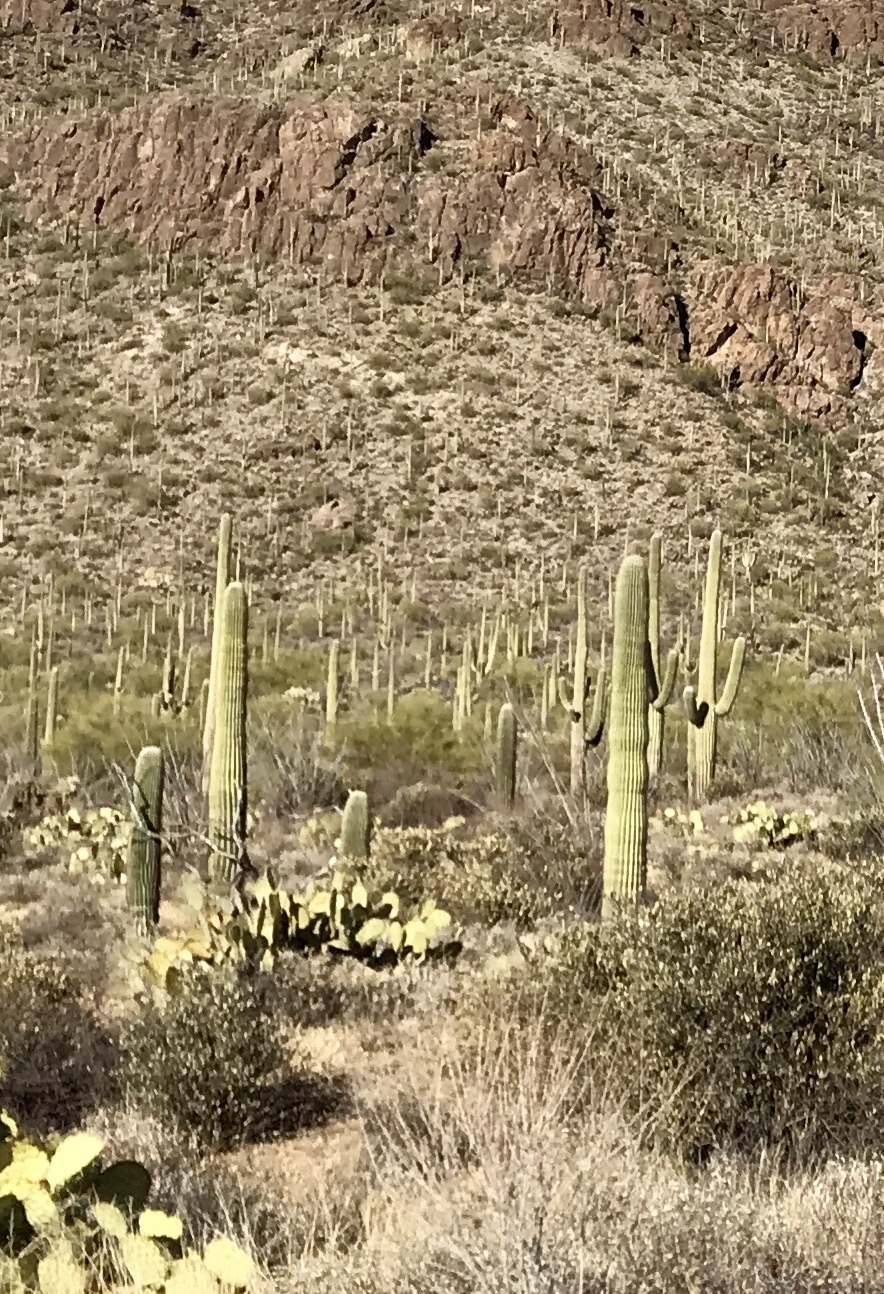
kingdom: Plantae
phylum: Tracheophyta
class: Magnoliopsida
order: Caryophyllales
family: Cactaceae
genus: Carnegiea
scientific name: Carnegiea gigantea
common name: Saguaro
